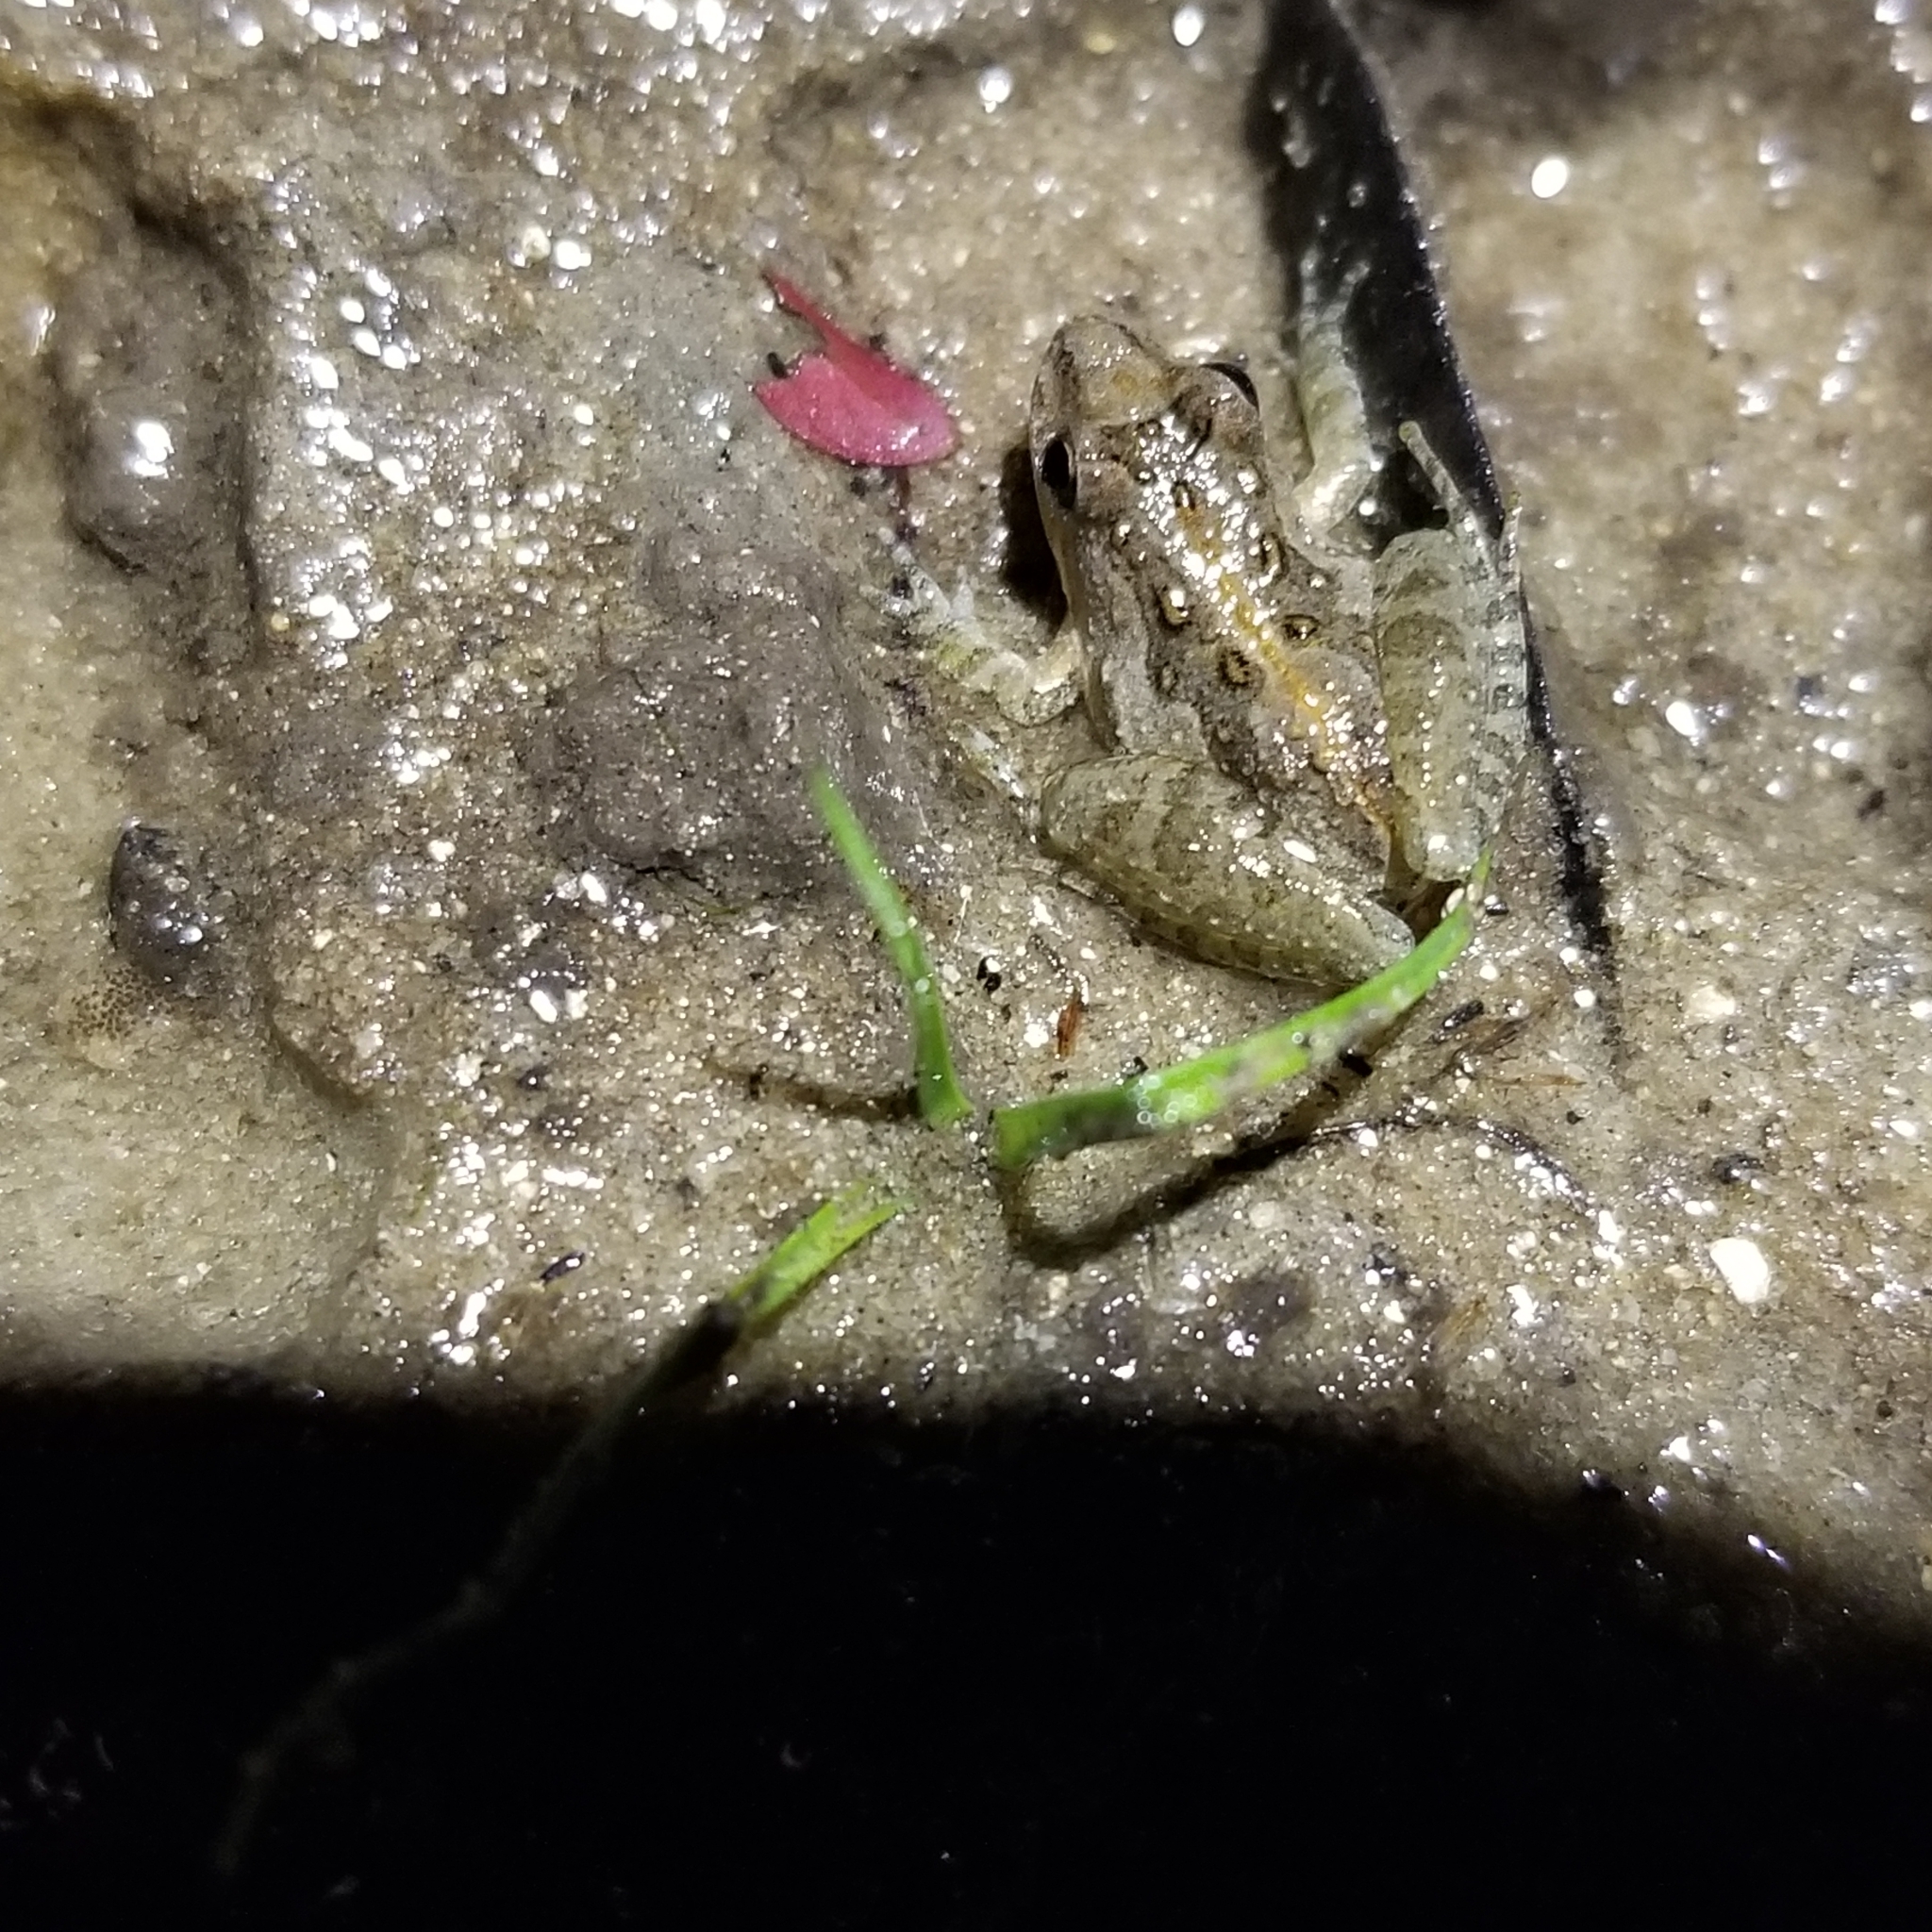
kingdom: Animalia
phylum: Chordata
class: Amphibia
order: Anura
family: Hylidae
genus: Acris
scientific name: Acris gryllus
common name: Southern cricket frog
